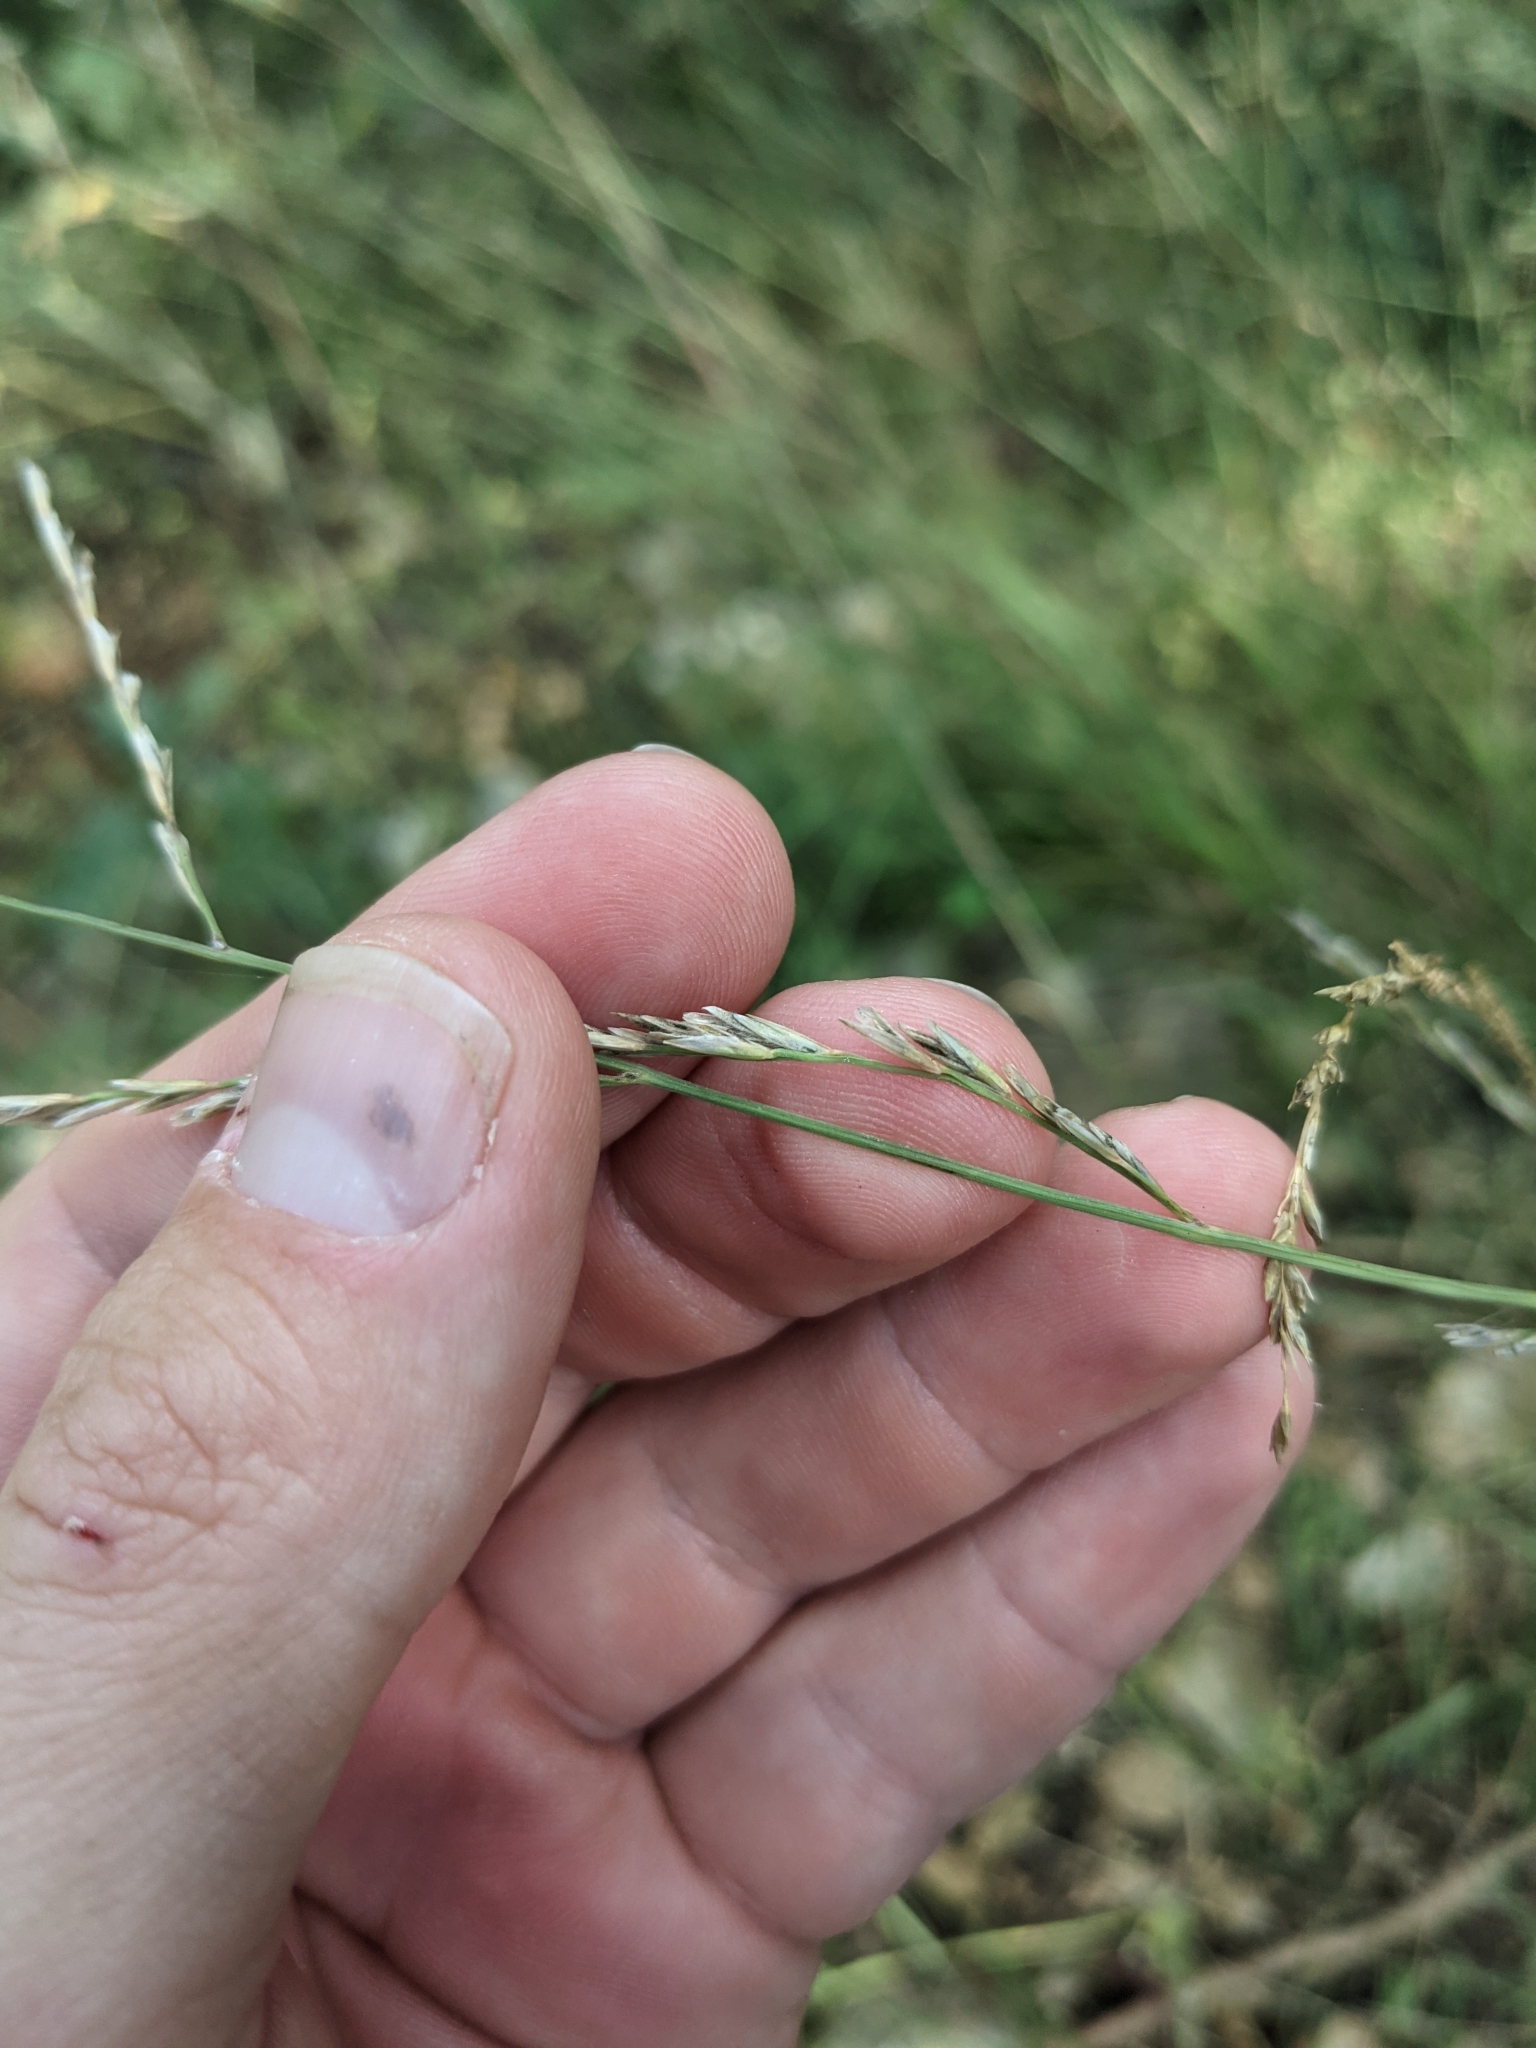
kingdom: Plantae
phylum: Tracheophyta
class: Liliopsida
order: Poales
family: Poaceae
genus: Tridentopsis
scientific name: Tridentopsis buckleyana
